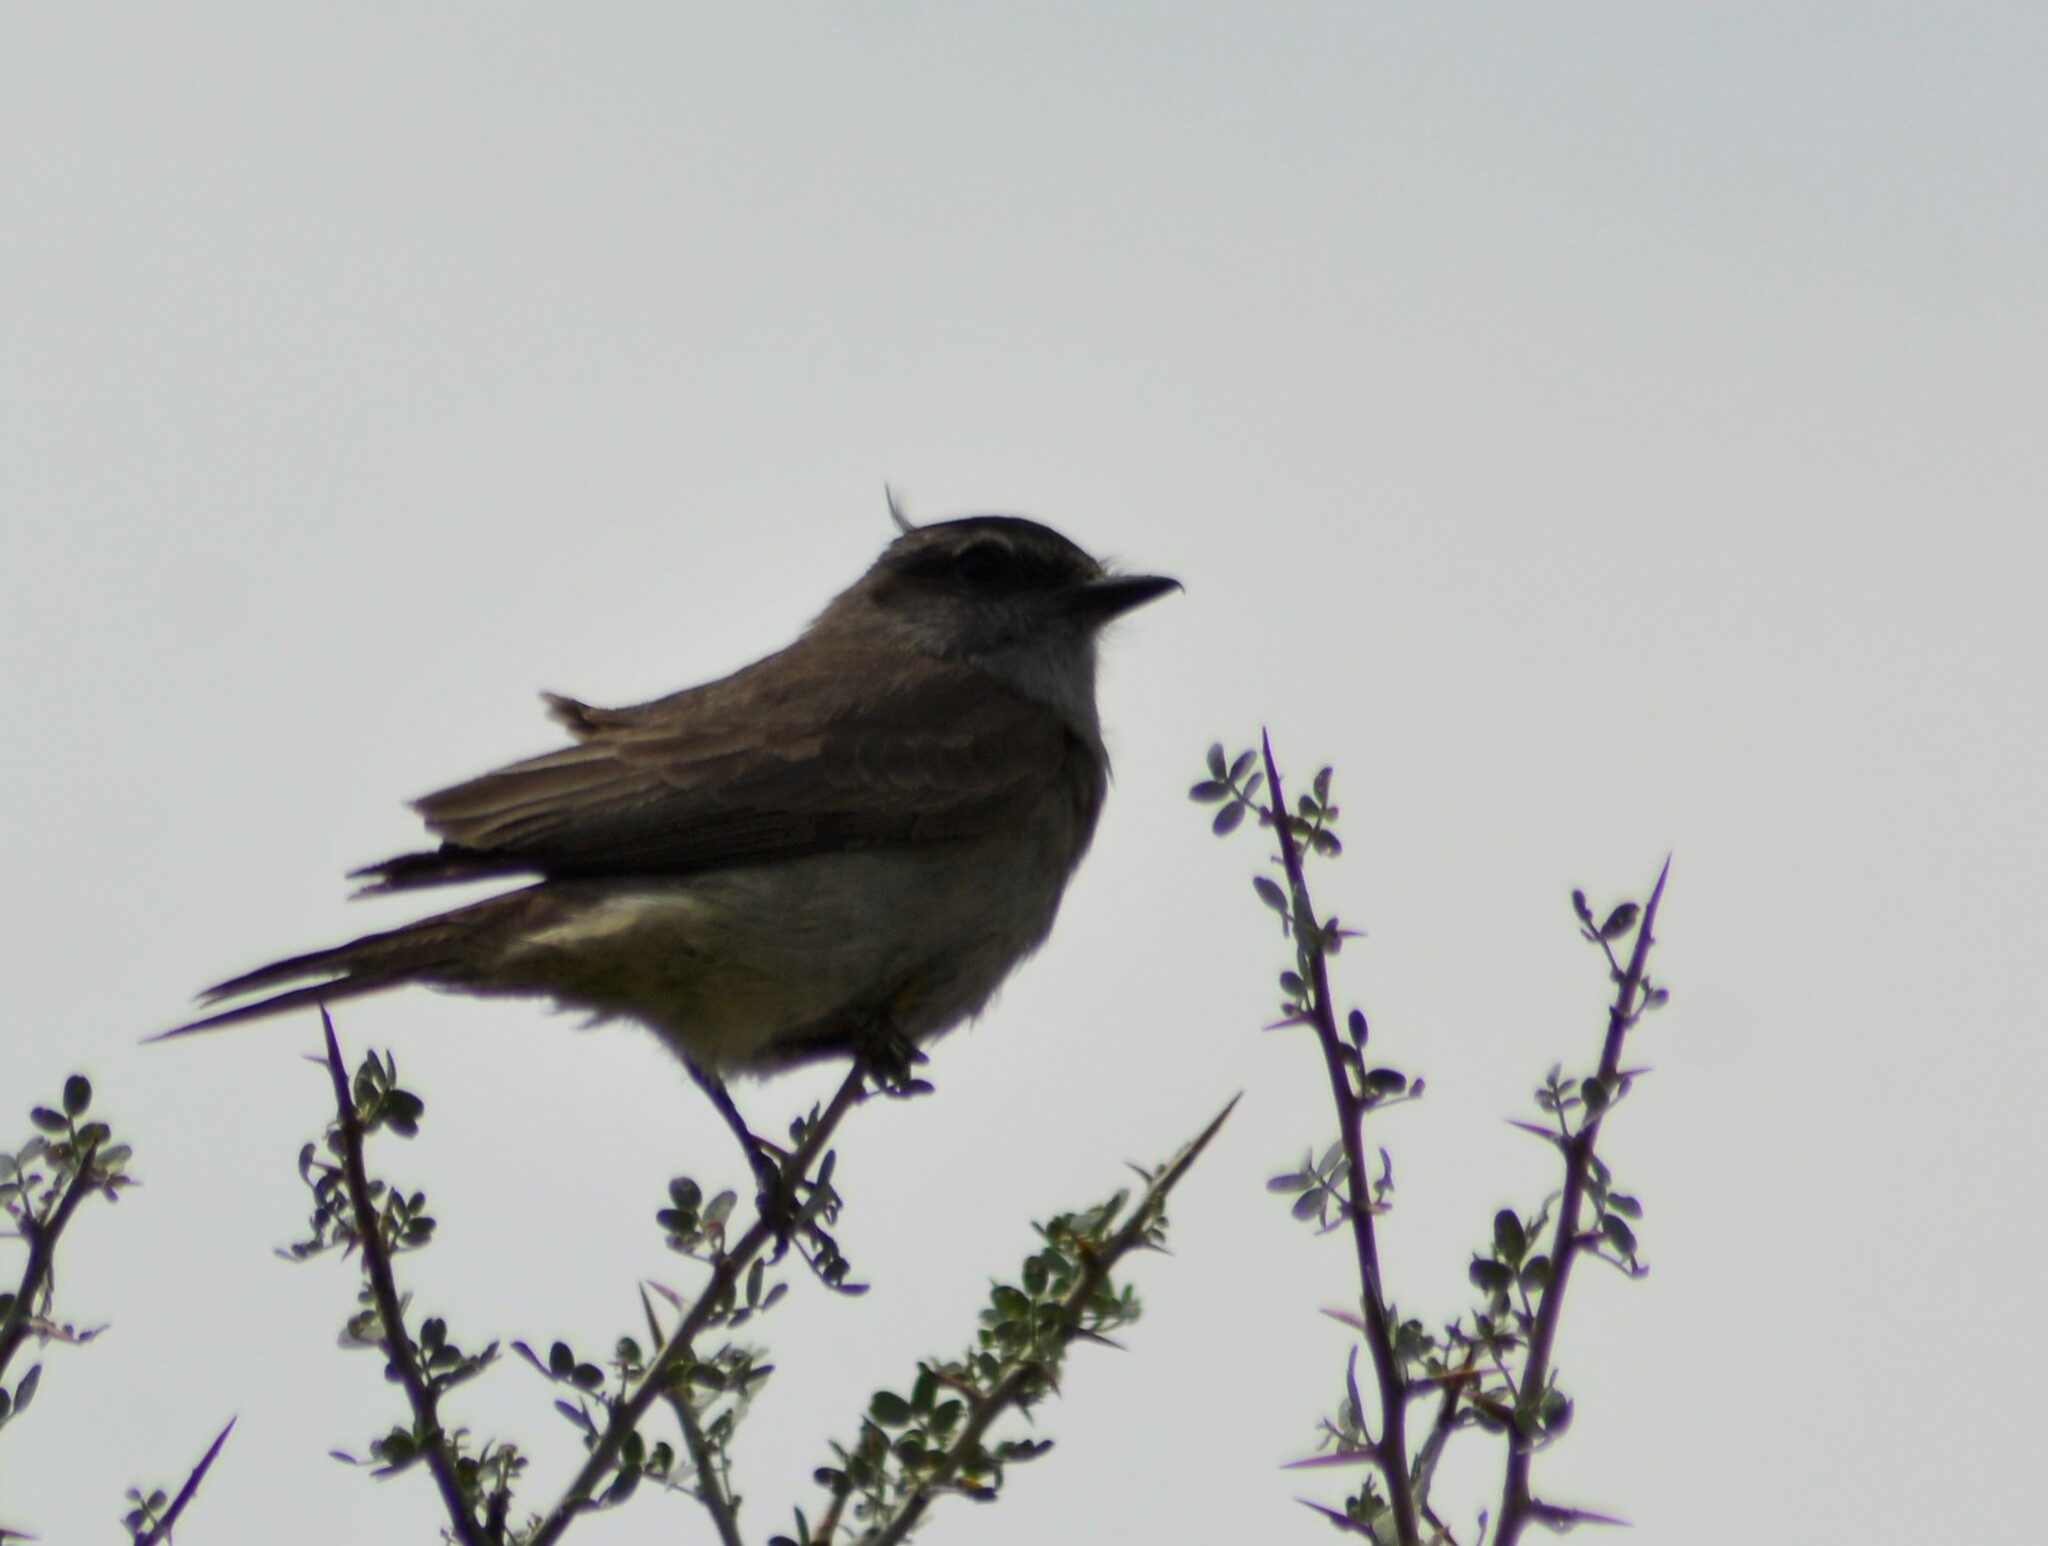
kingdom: Animalia
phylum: Chordata
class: Aves
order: Passeriformes
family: Tyrannidae
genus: Empidonomus
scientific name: Empidonomus aurantioatrocristatus
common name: Crowned slaty flycatcher
